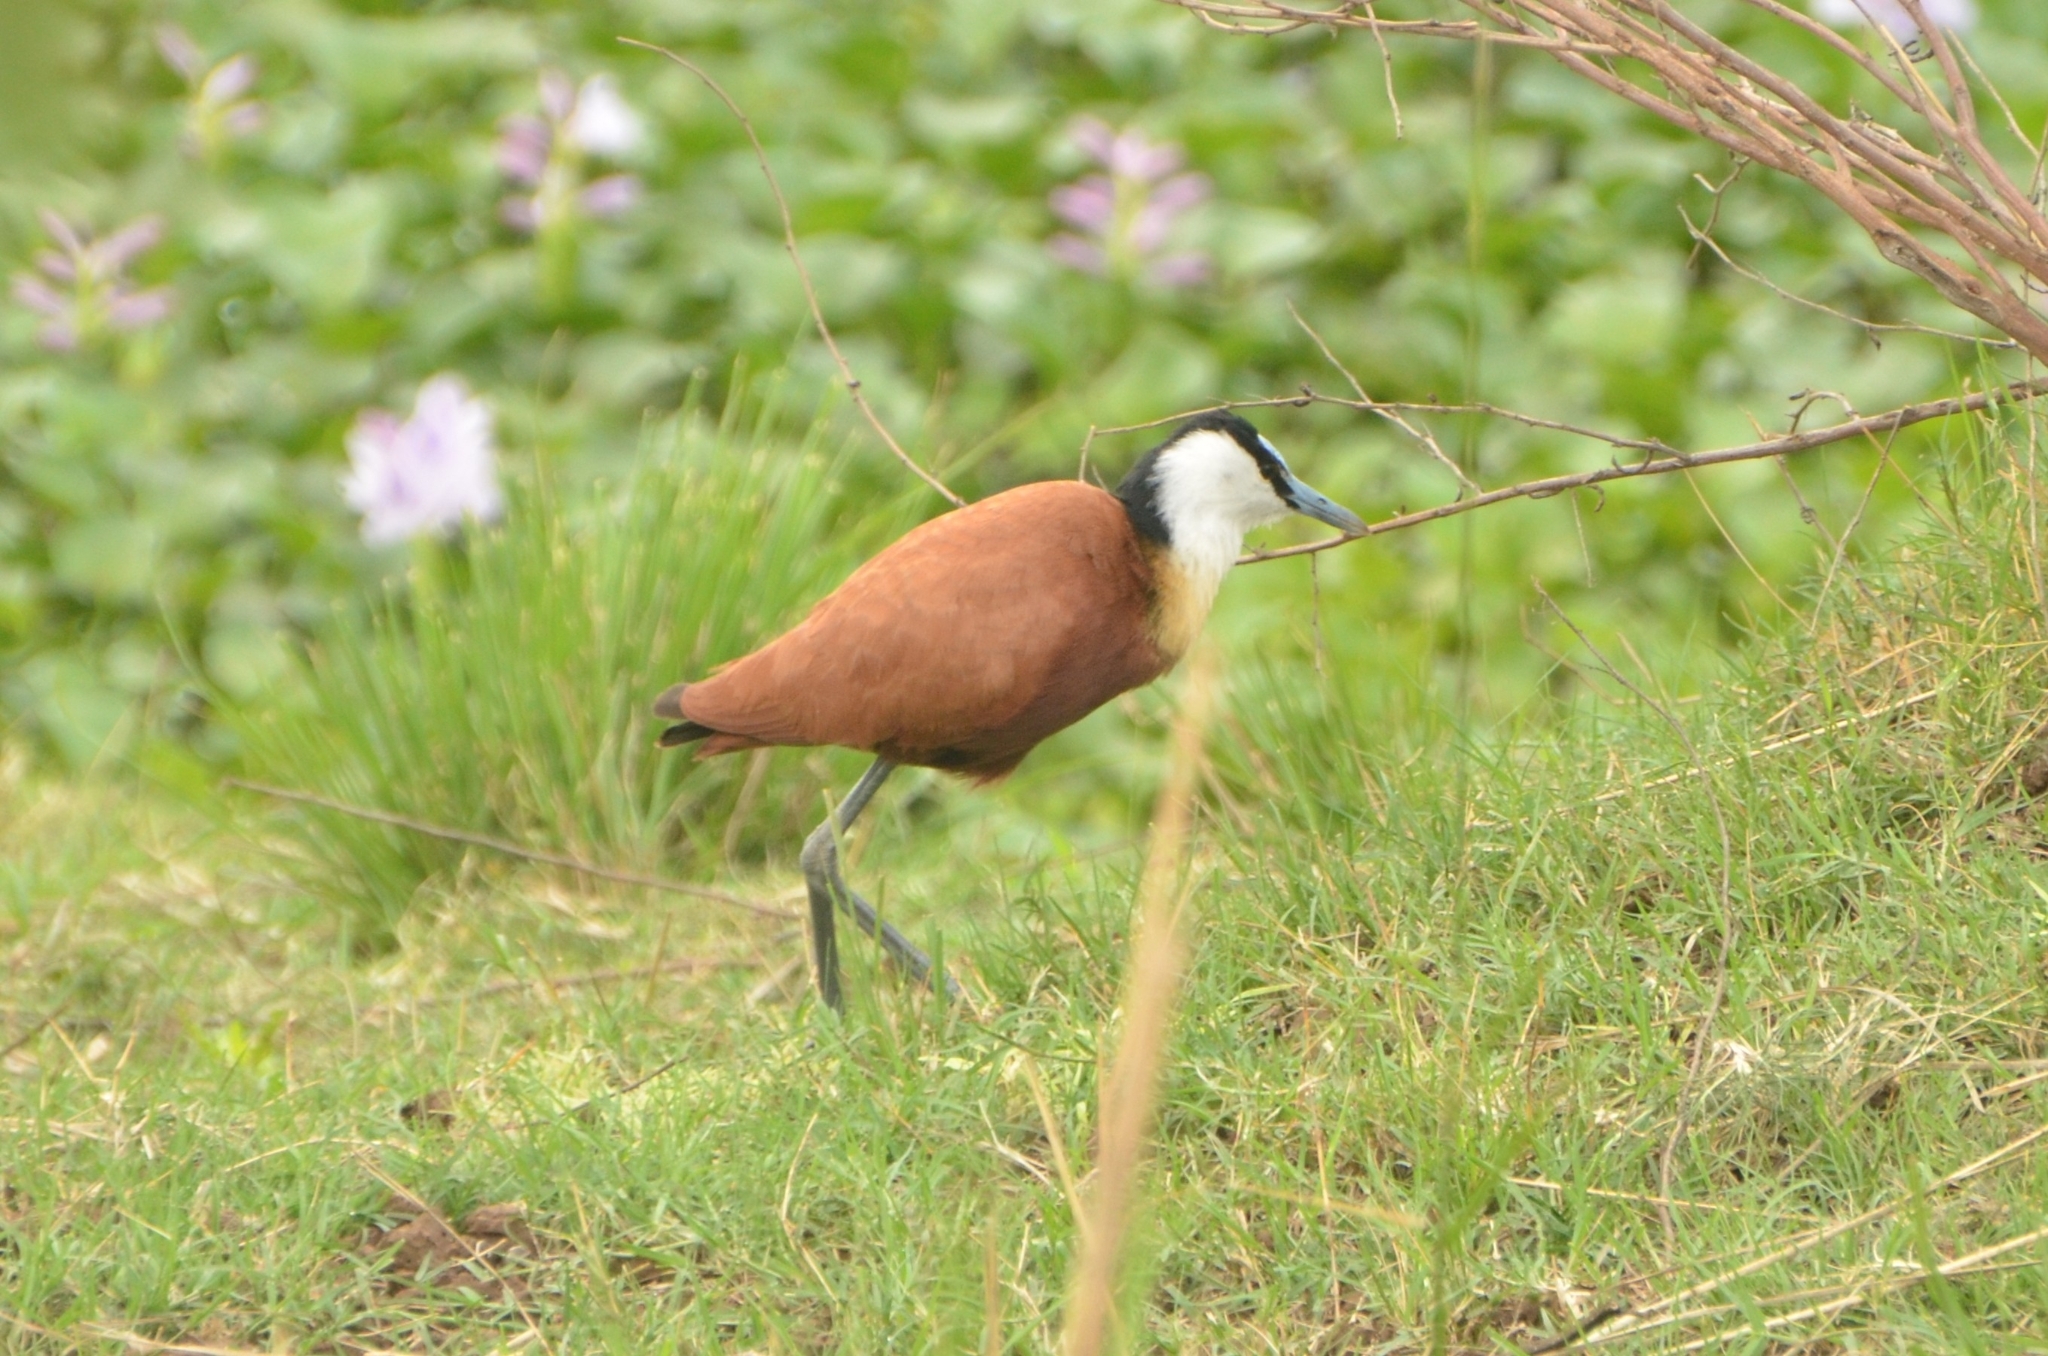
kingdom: Animalia
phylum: Chordata
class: Aves
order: Charadriiformes
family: Jacanidae
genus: Actophilornis
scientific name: Actophilornis africanus
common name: African jacana
